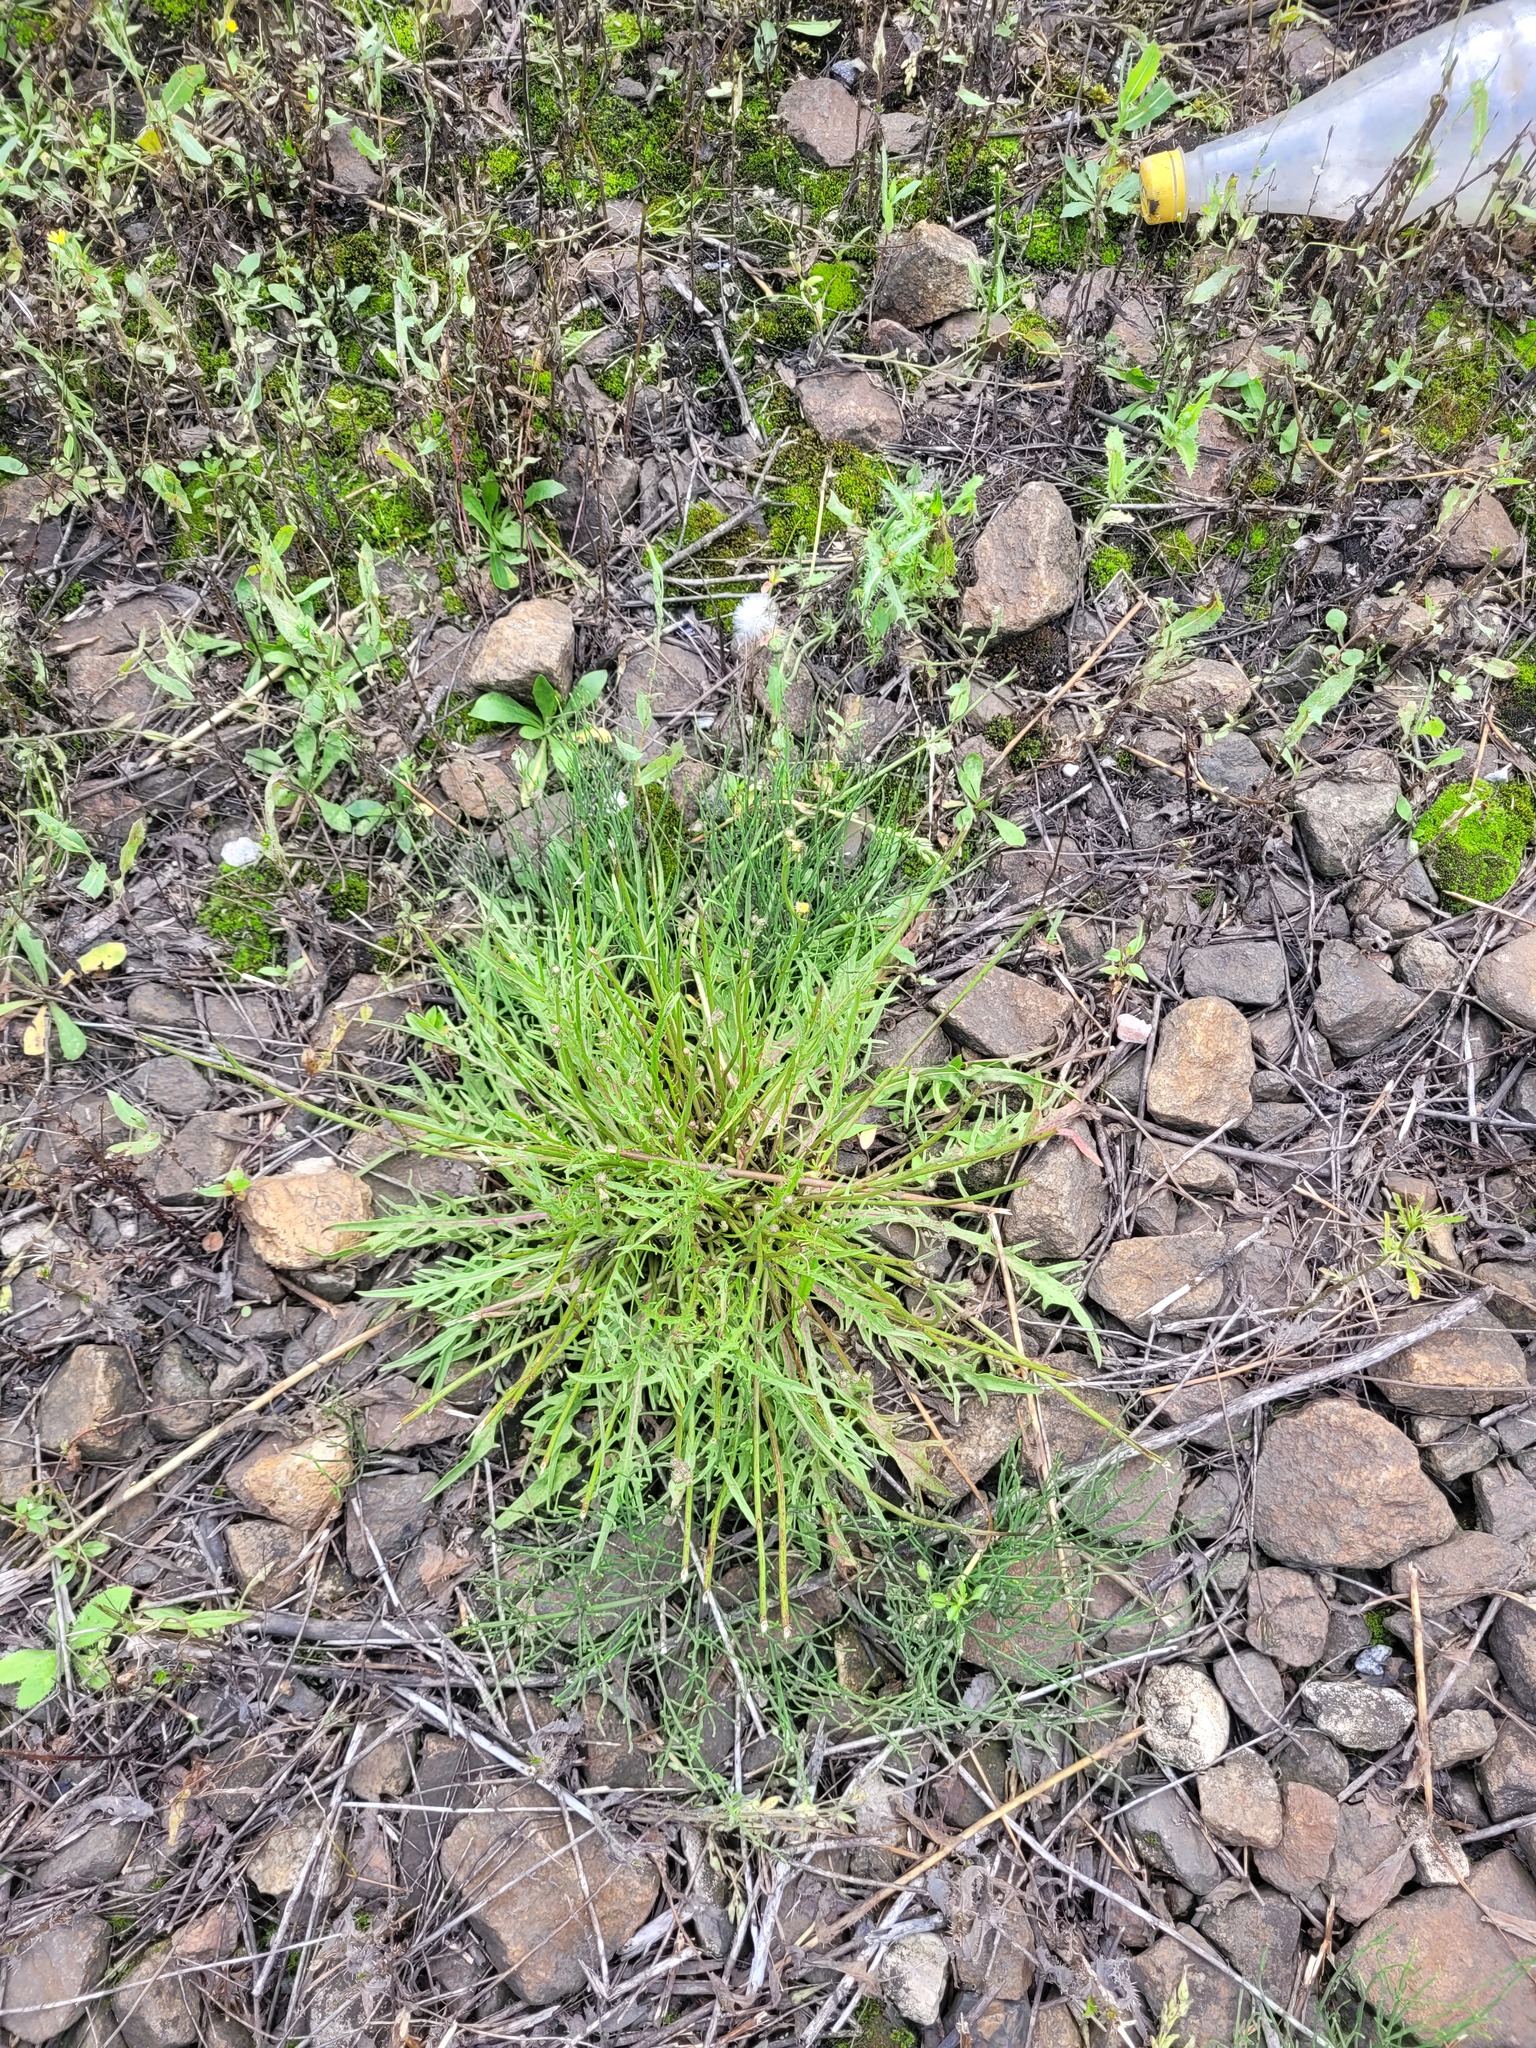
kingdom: Plantae
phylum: Tracheophyta
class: Magnoliopsida
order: Asterales
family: Asteraceae
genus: Scorzoneroides
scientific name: Scorzoneroides autumnalis
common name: Autumn hawkbit
